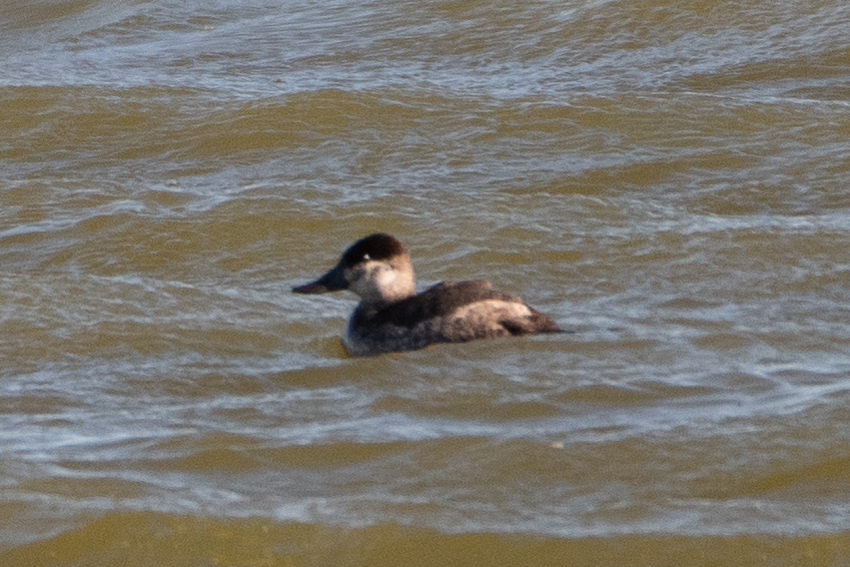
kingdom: Animalia
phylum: Chordata
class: Aves
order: Anseriformes
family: Anatidae
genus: Oxyura
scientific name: Oxyura jamaicensis
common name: Ruddy duck
